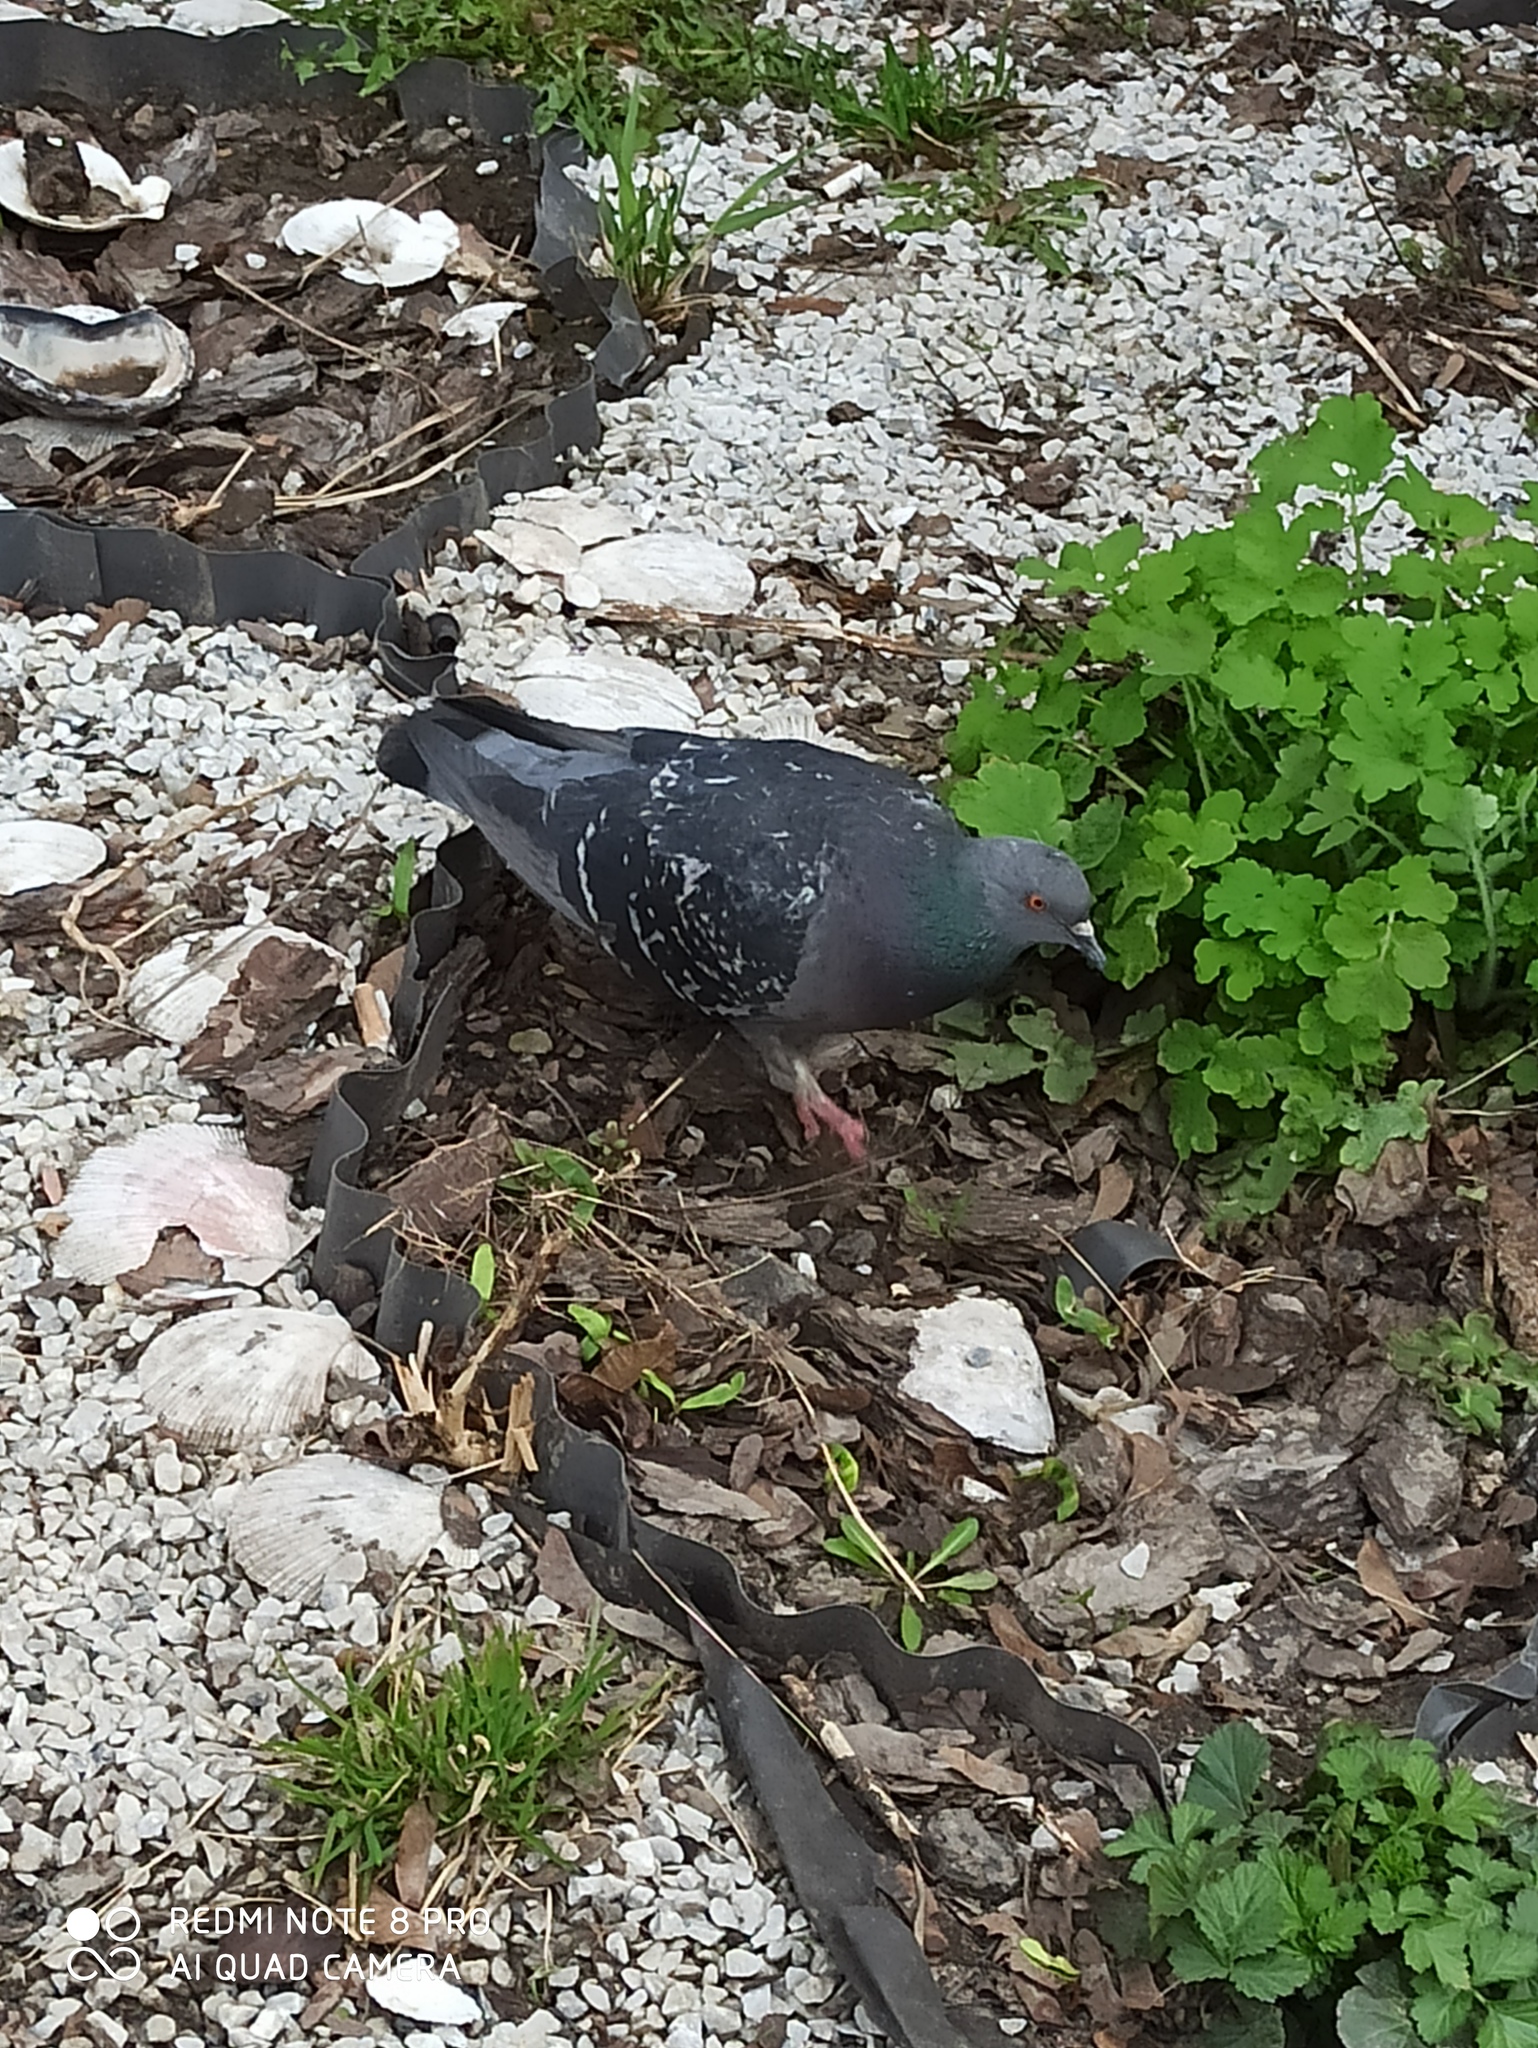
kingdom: Animalia
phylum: Chordata
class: Aves
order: Columbiformes
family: Columbidae
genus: Columba
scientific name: Columba livia
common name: Rock pigeon
